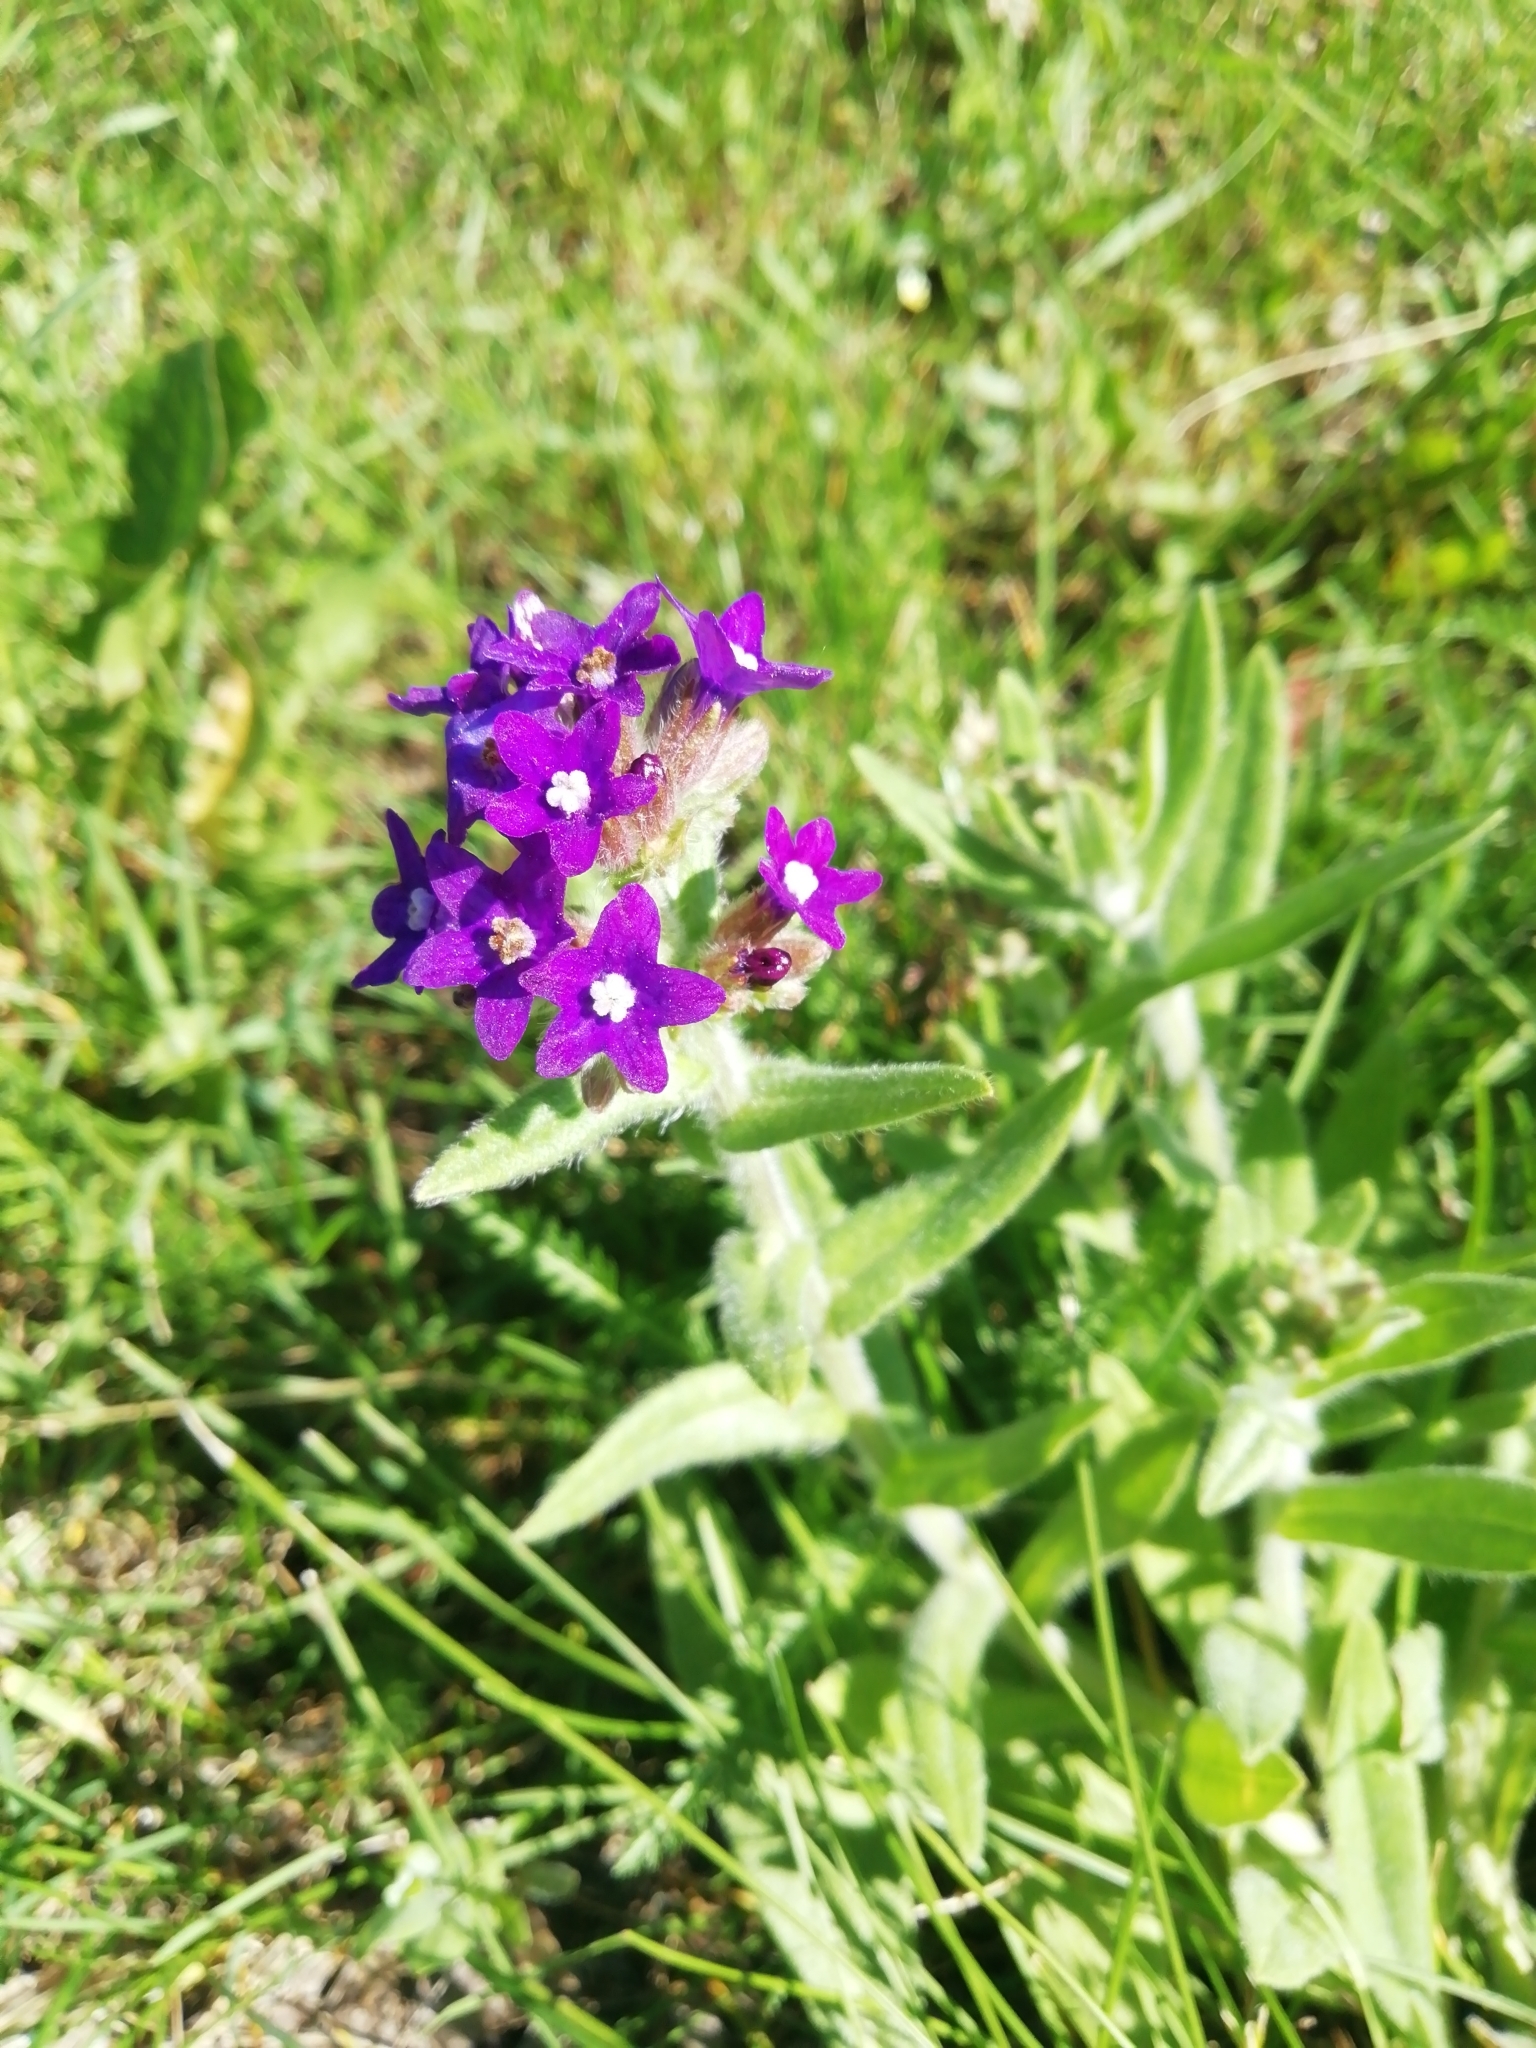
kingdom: Plantae
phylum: Tracheophyta
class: Magnoliopsida
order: Boraginales
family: Boraginaceae
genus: Anchusa
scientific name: Anchusa officinalis
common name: Alkanet
